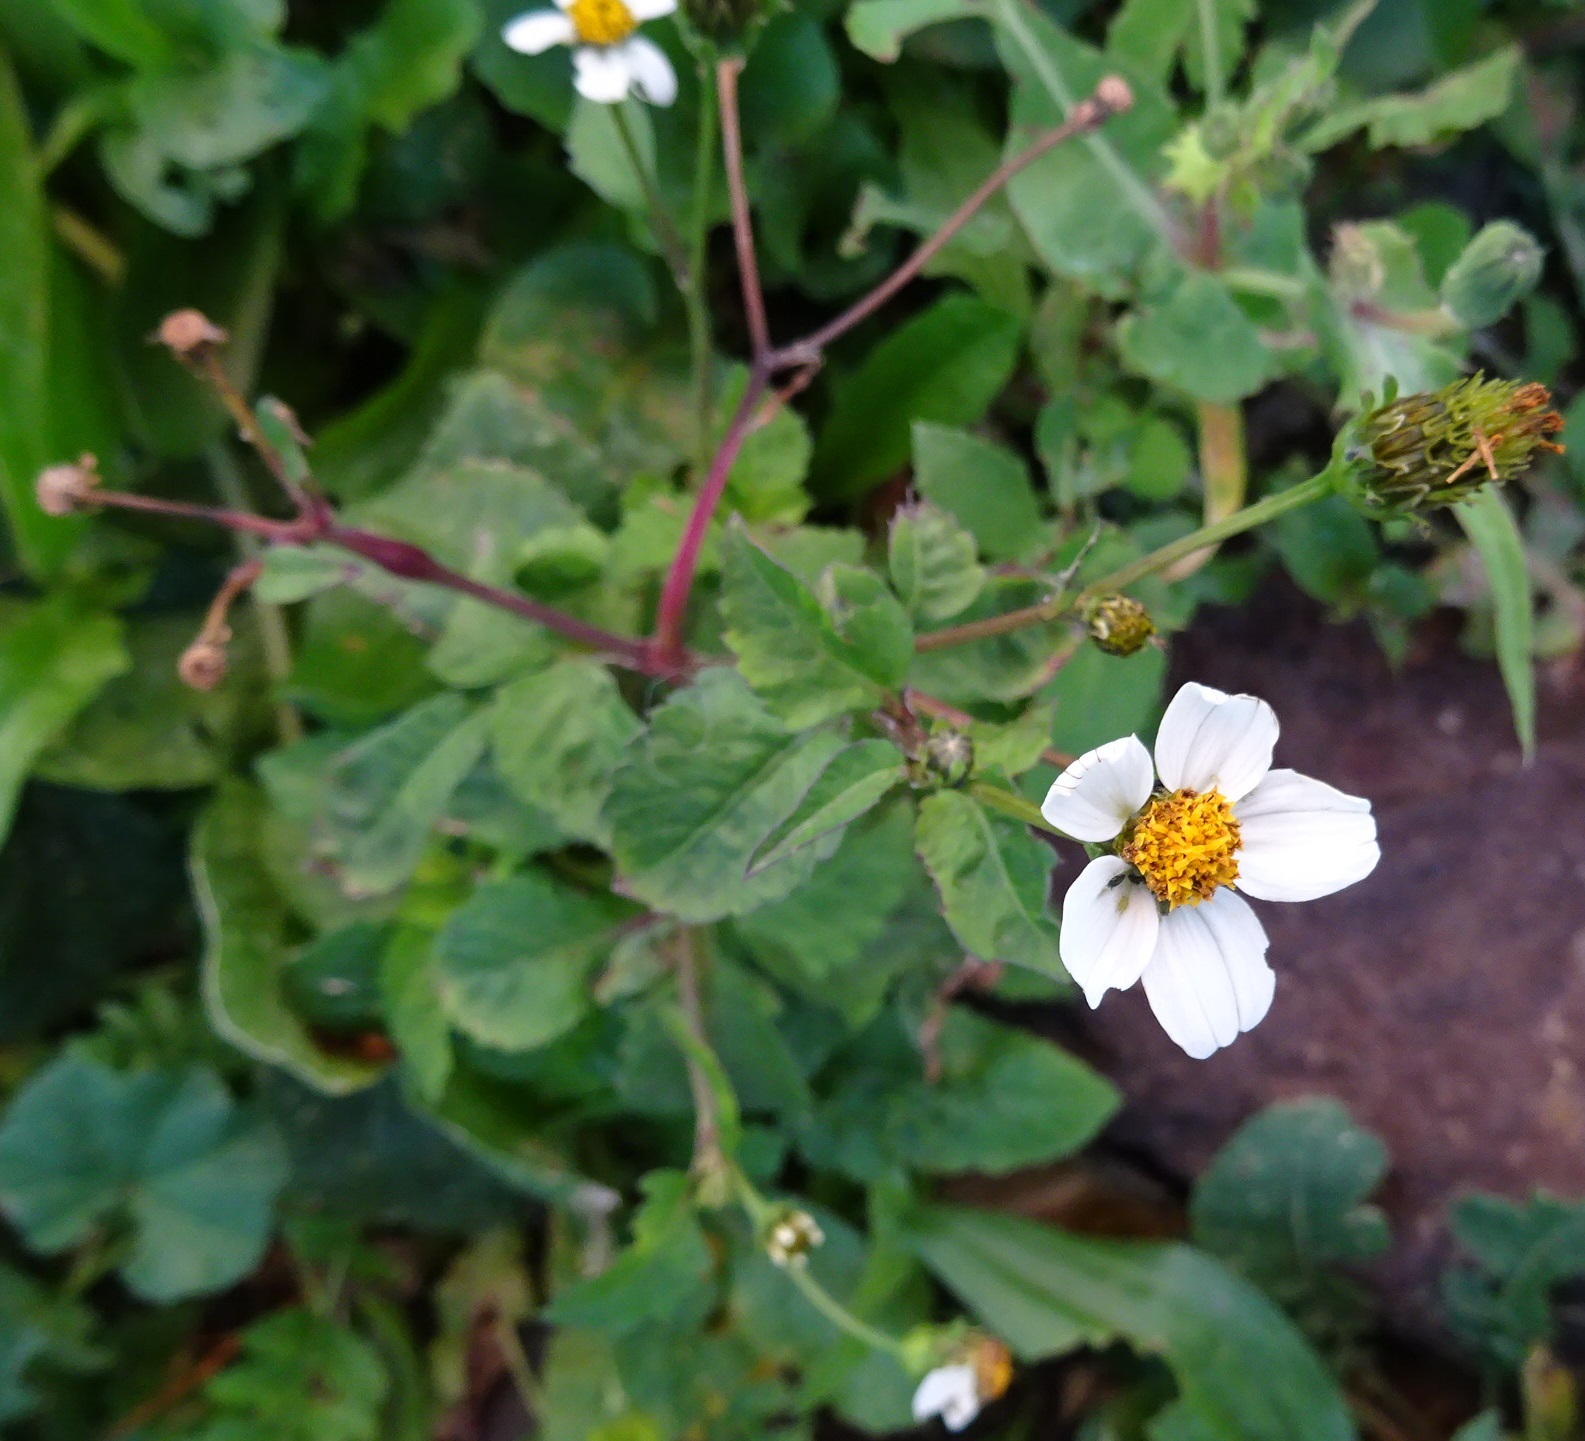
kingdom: Plantae
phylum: Tracheophyta
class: Magnoliopsida
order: Asterales
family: Asteraceae
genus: Bidens
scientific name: Bidens pilosa
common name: Black-jack
